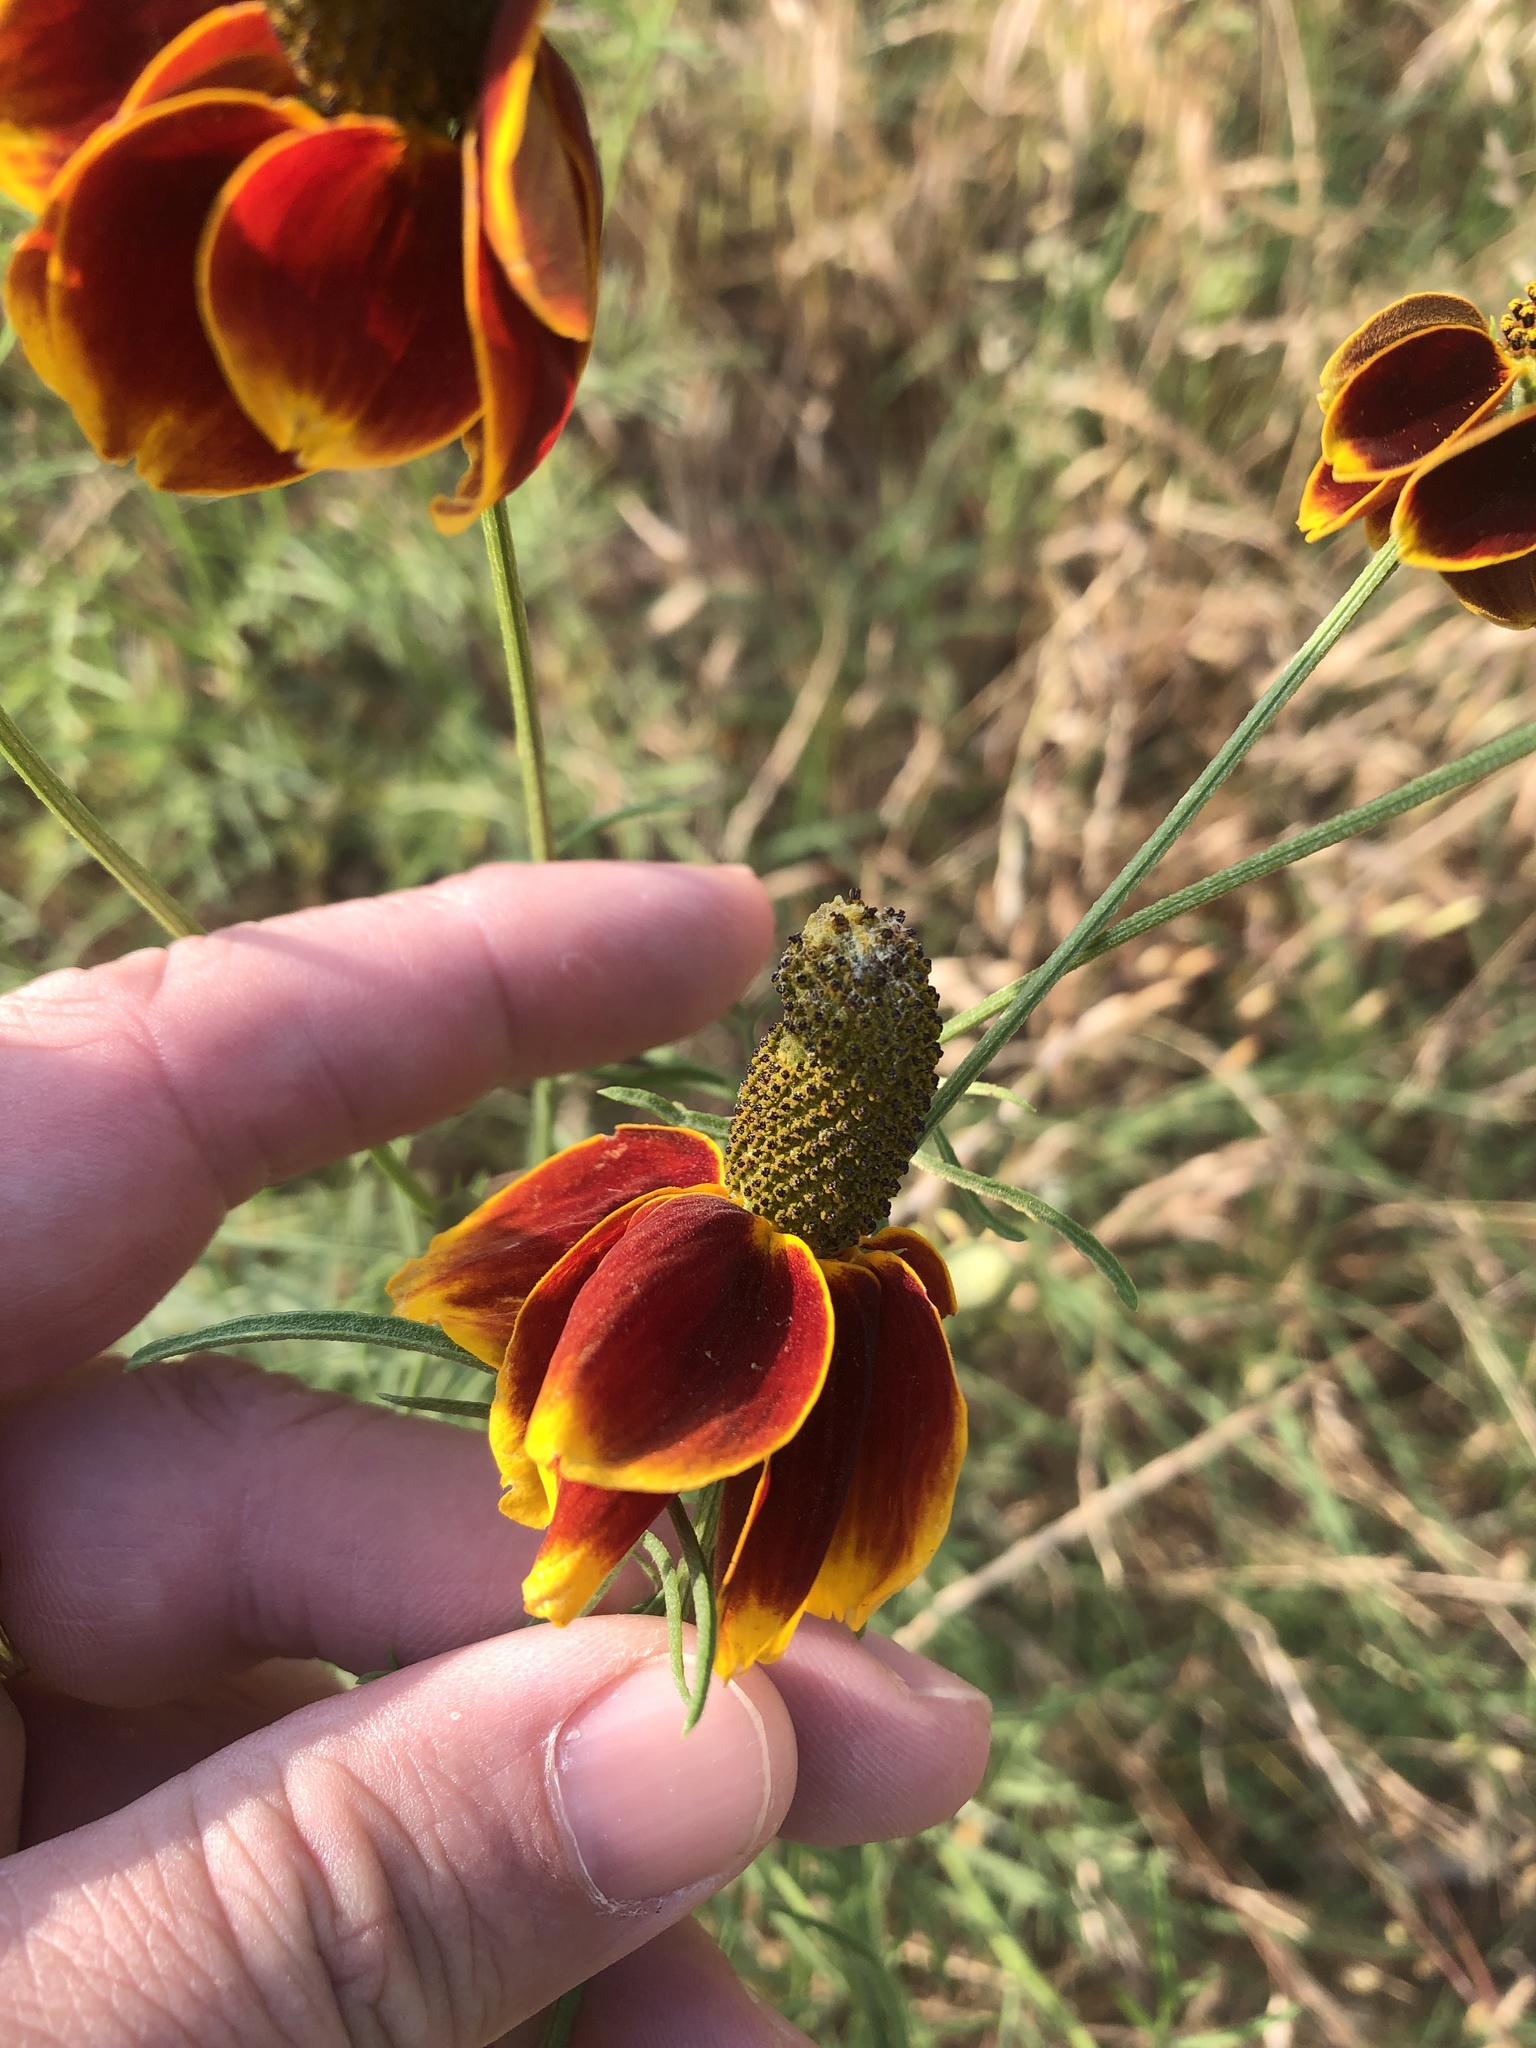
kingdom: Plantae
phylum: Tracheophyta
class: Magnoliopsida
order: Asterales
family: Asteraceae
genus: Ratibida
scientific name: Ratibida columnifera
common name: Prairie coneflower
